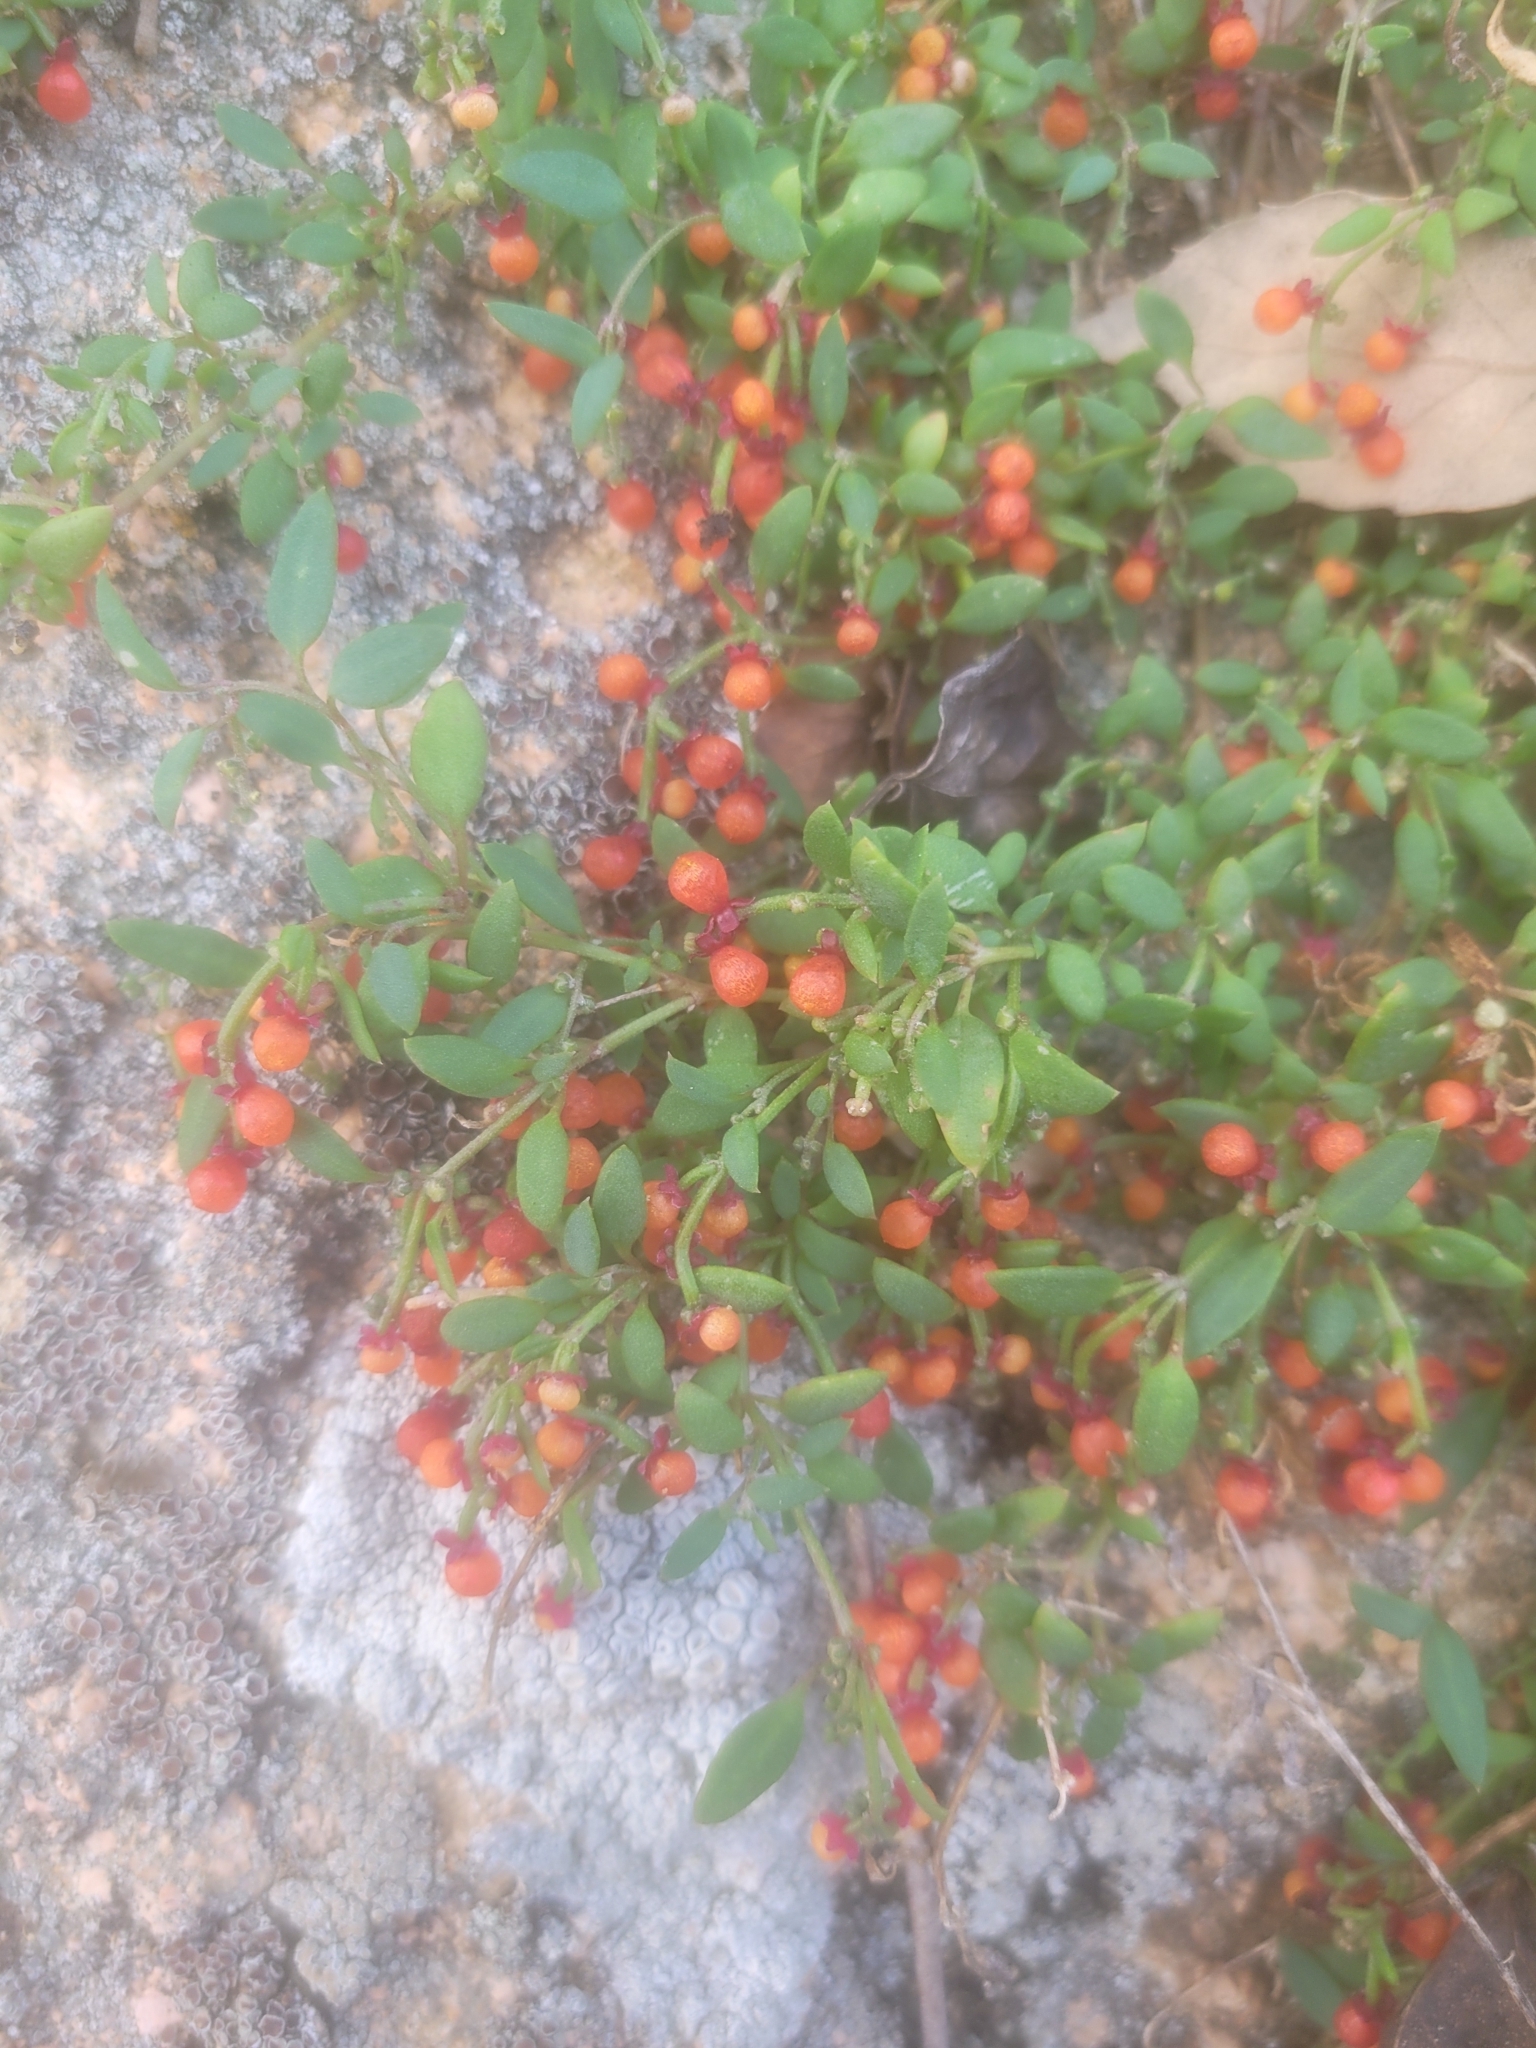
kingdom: Plantae
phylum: Tracheophyta
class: Magnoliopsida
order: Caryophyllales
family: Amaranthaceae
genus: Chenopodium
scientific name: Chenopodium nutans
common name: Climbing-saltbush
